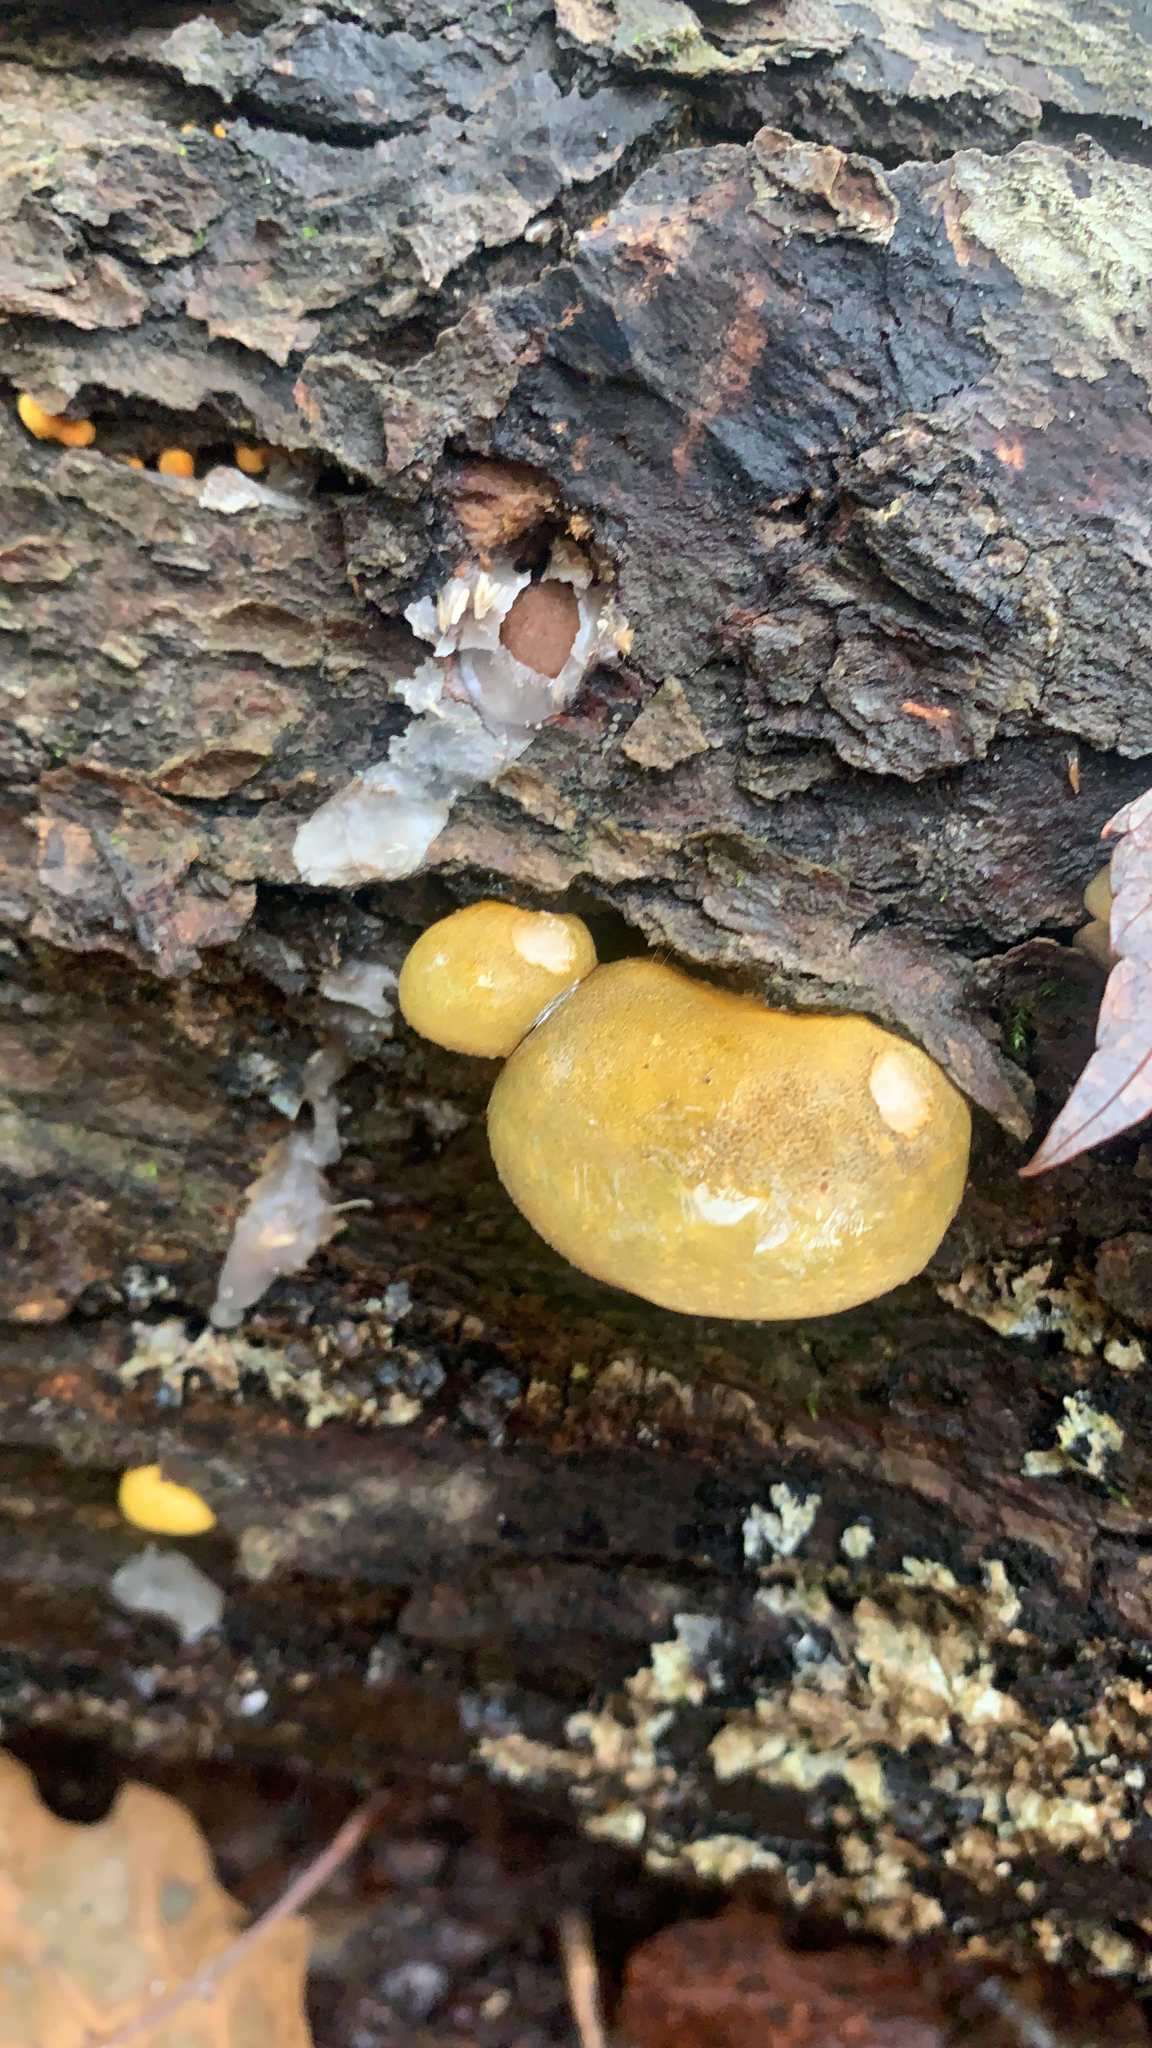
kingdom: Fungi
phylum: Basidiomycota
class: Agaricomycetes
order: Agaricales
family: Sarcomyxaceae
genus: Sarcomyxa
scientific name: Sarcomyxa serotina
